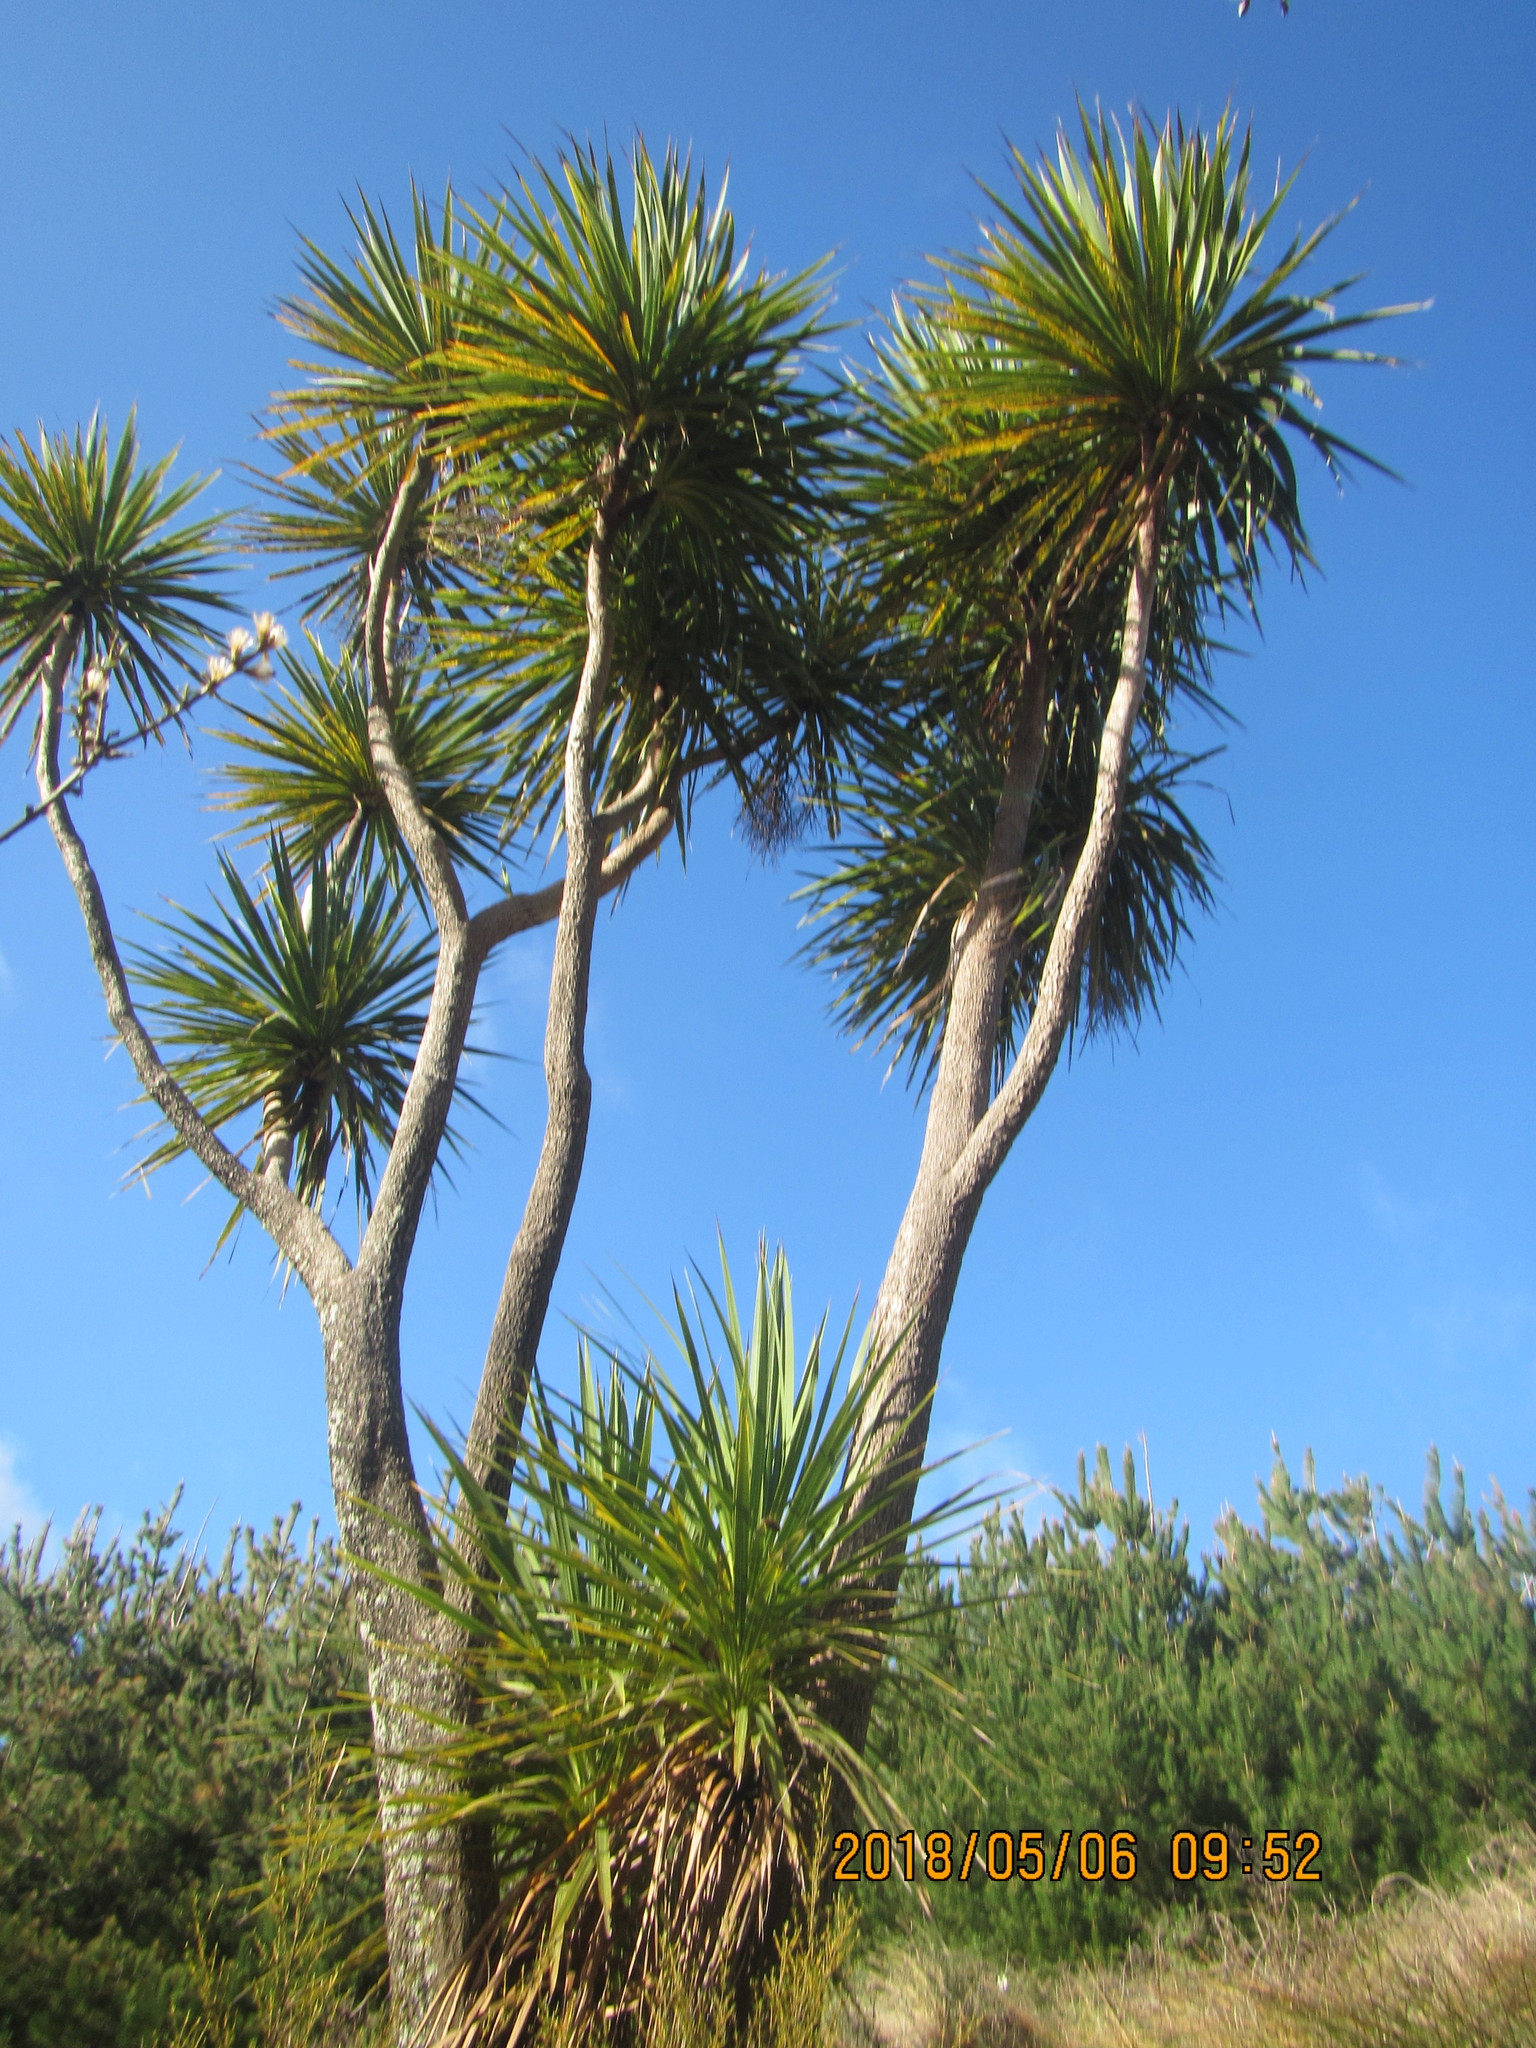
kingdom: Plantae
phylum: Tracheophyta
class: Liliopsida
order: Asparagales
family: Asparagaceae
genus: Cordyline
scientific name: Cordyline australis
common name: Cabbage-palm
